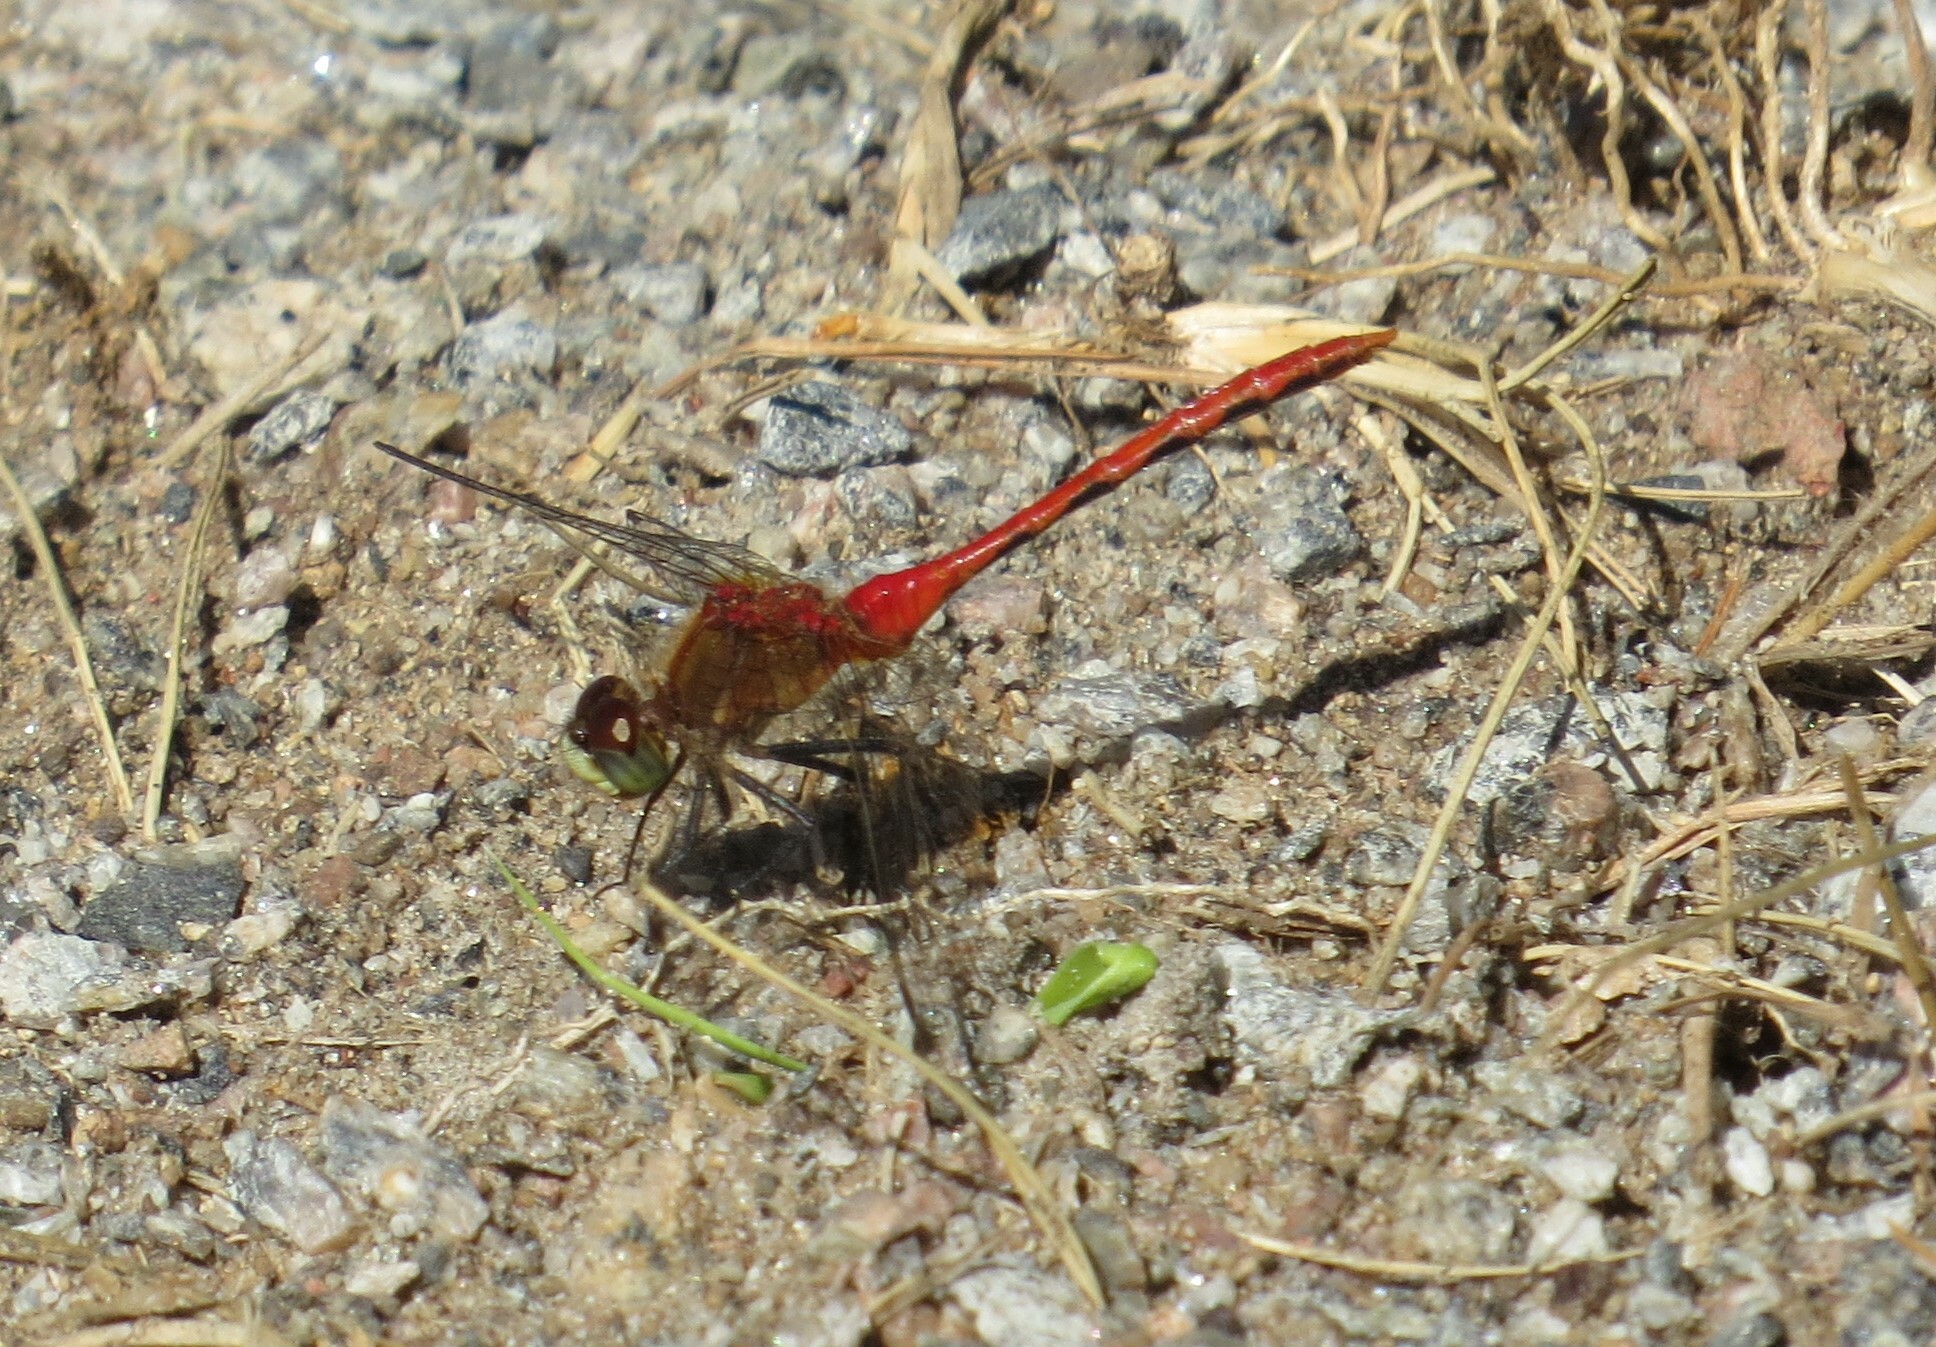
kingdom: Animalia
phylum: Arthropoda
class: Insecta
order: Odonata
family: Libellulidae
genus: Sympetrum
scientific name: Sympetrum obtrusum
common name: White-faced meadowhawk
